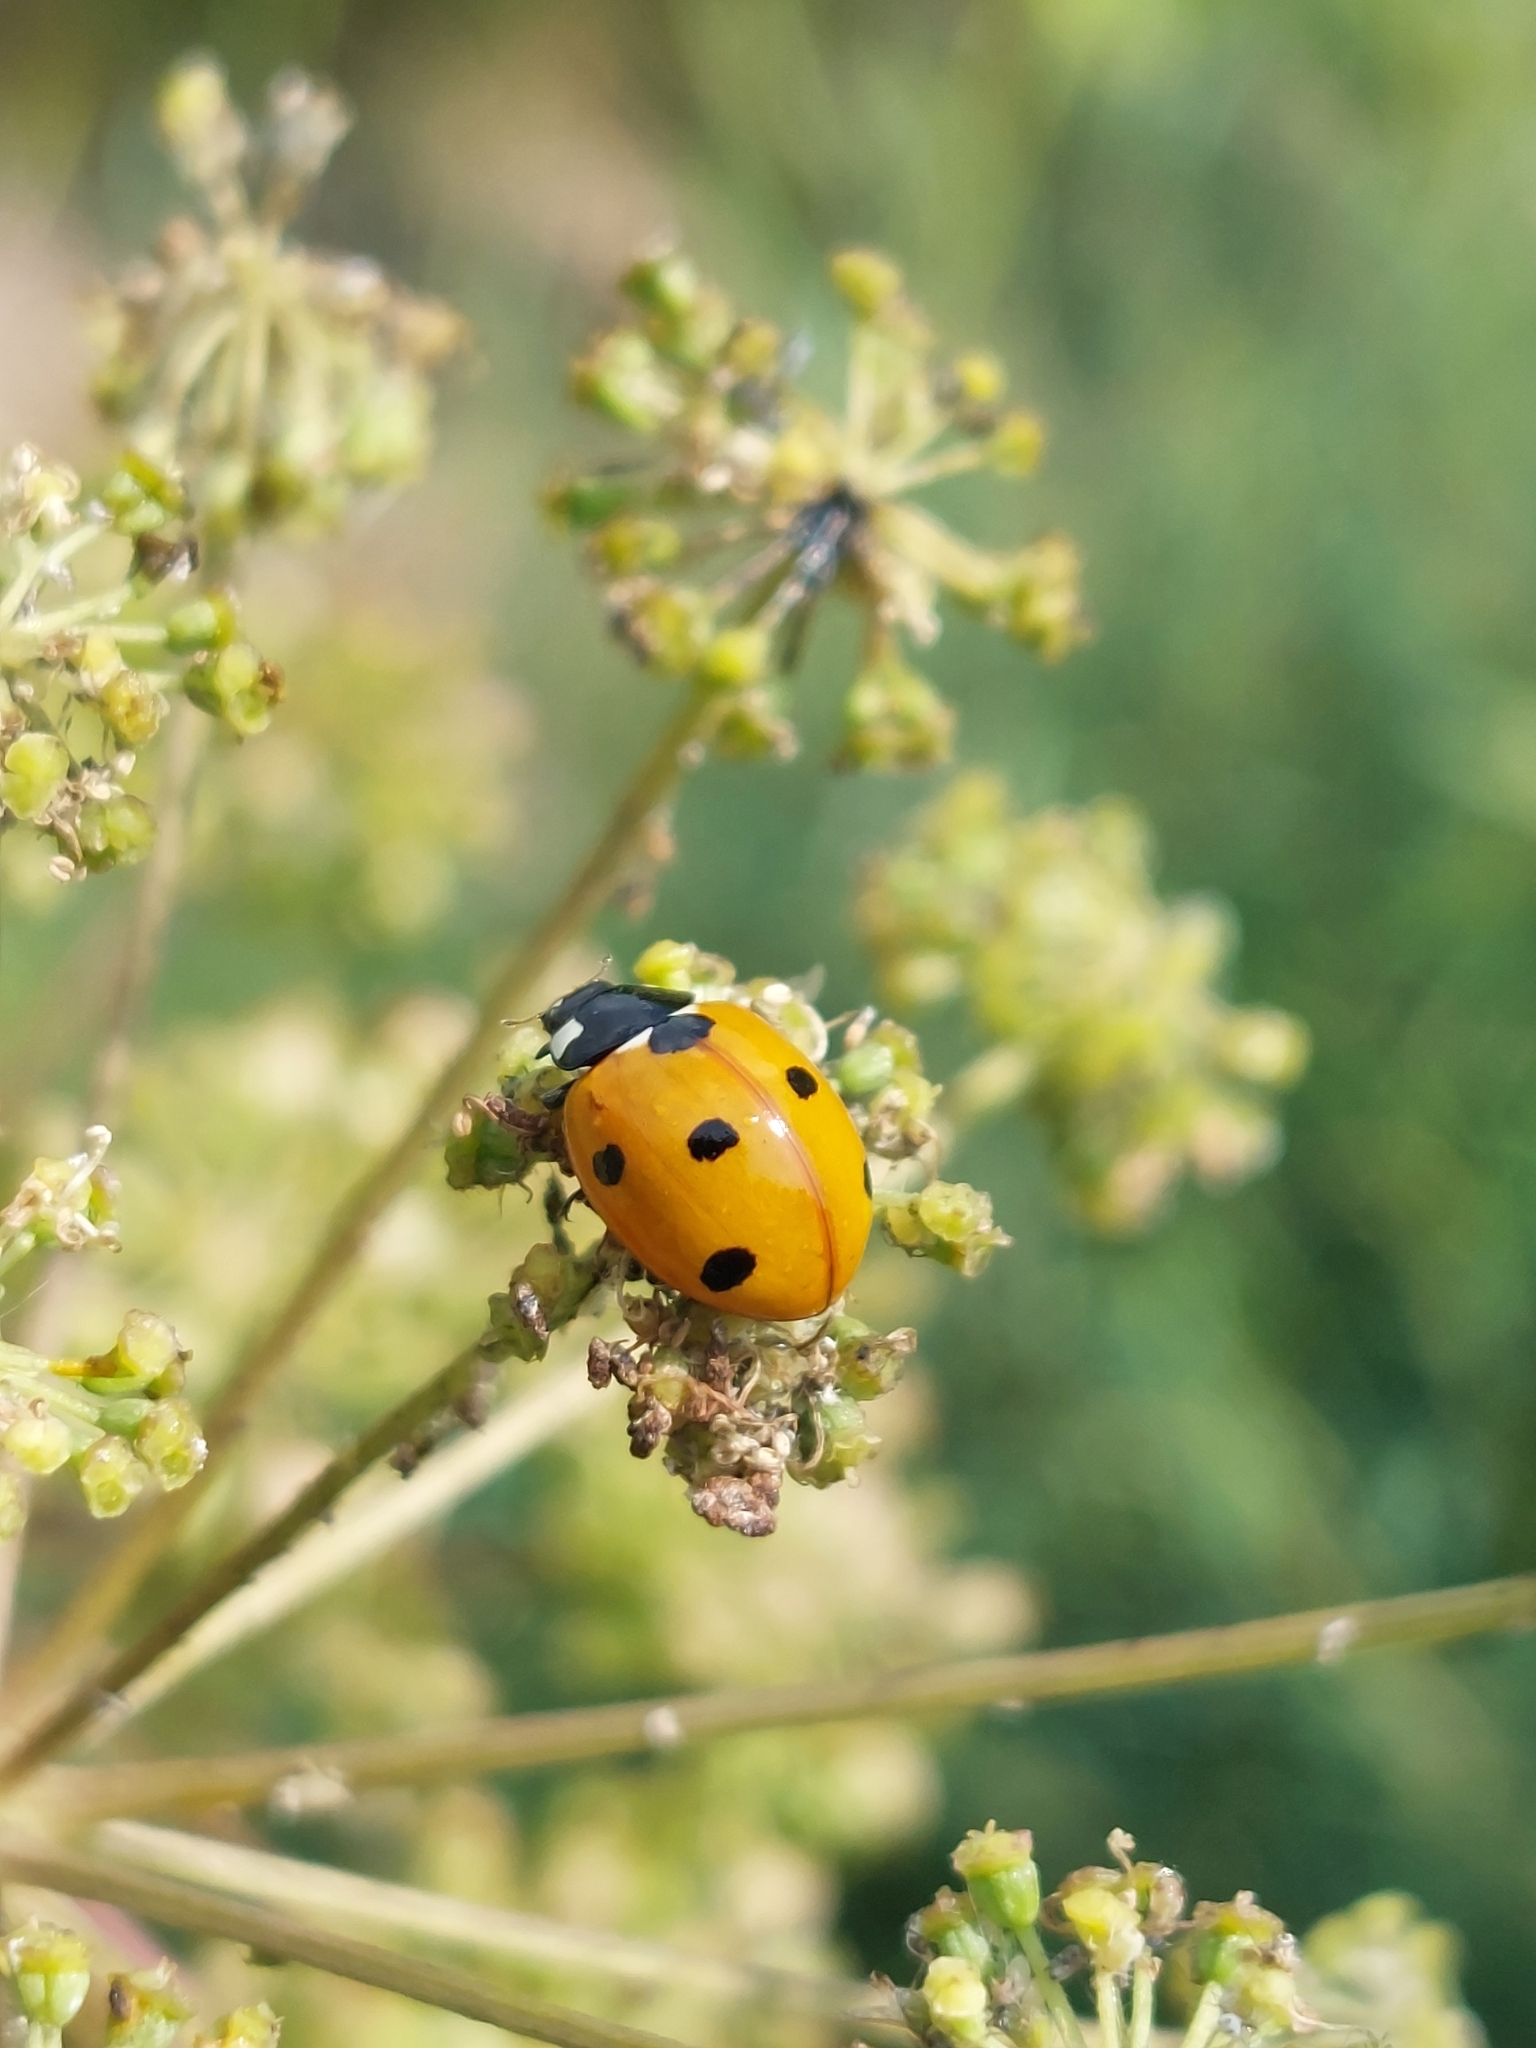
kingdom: Animalia
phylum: Arthropoda
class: Insecta
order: Coleoptera
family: Coccinellidae
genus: Coccinella
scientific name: Coccinella septempunctata
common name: Sevenspotted lady beetle
